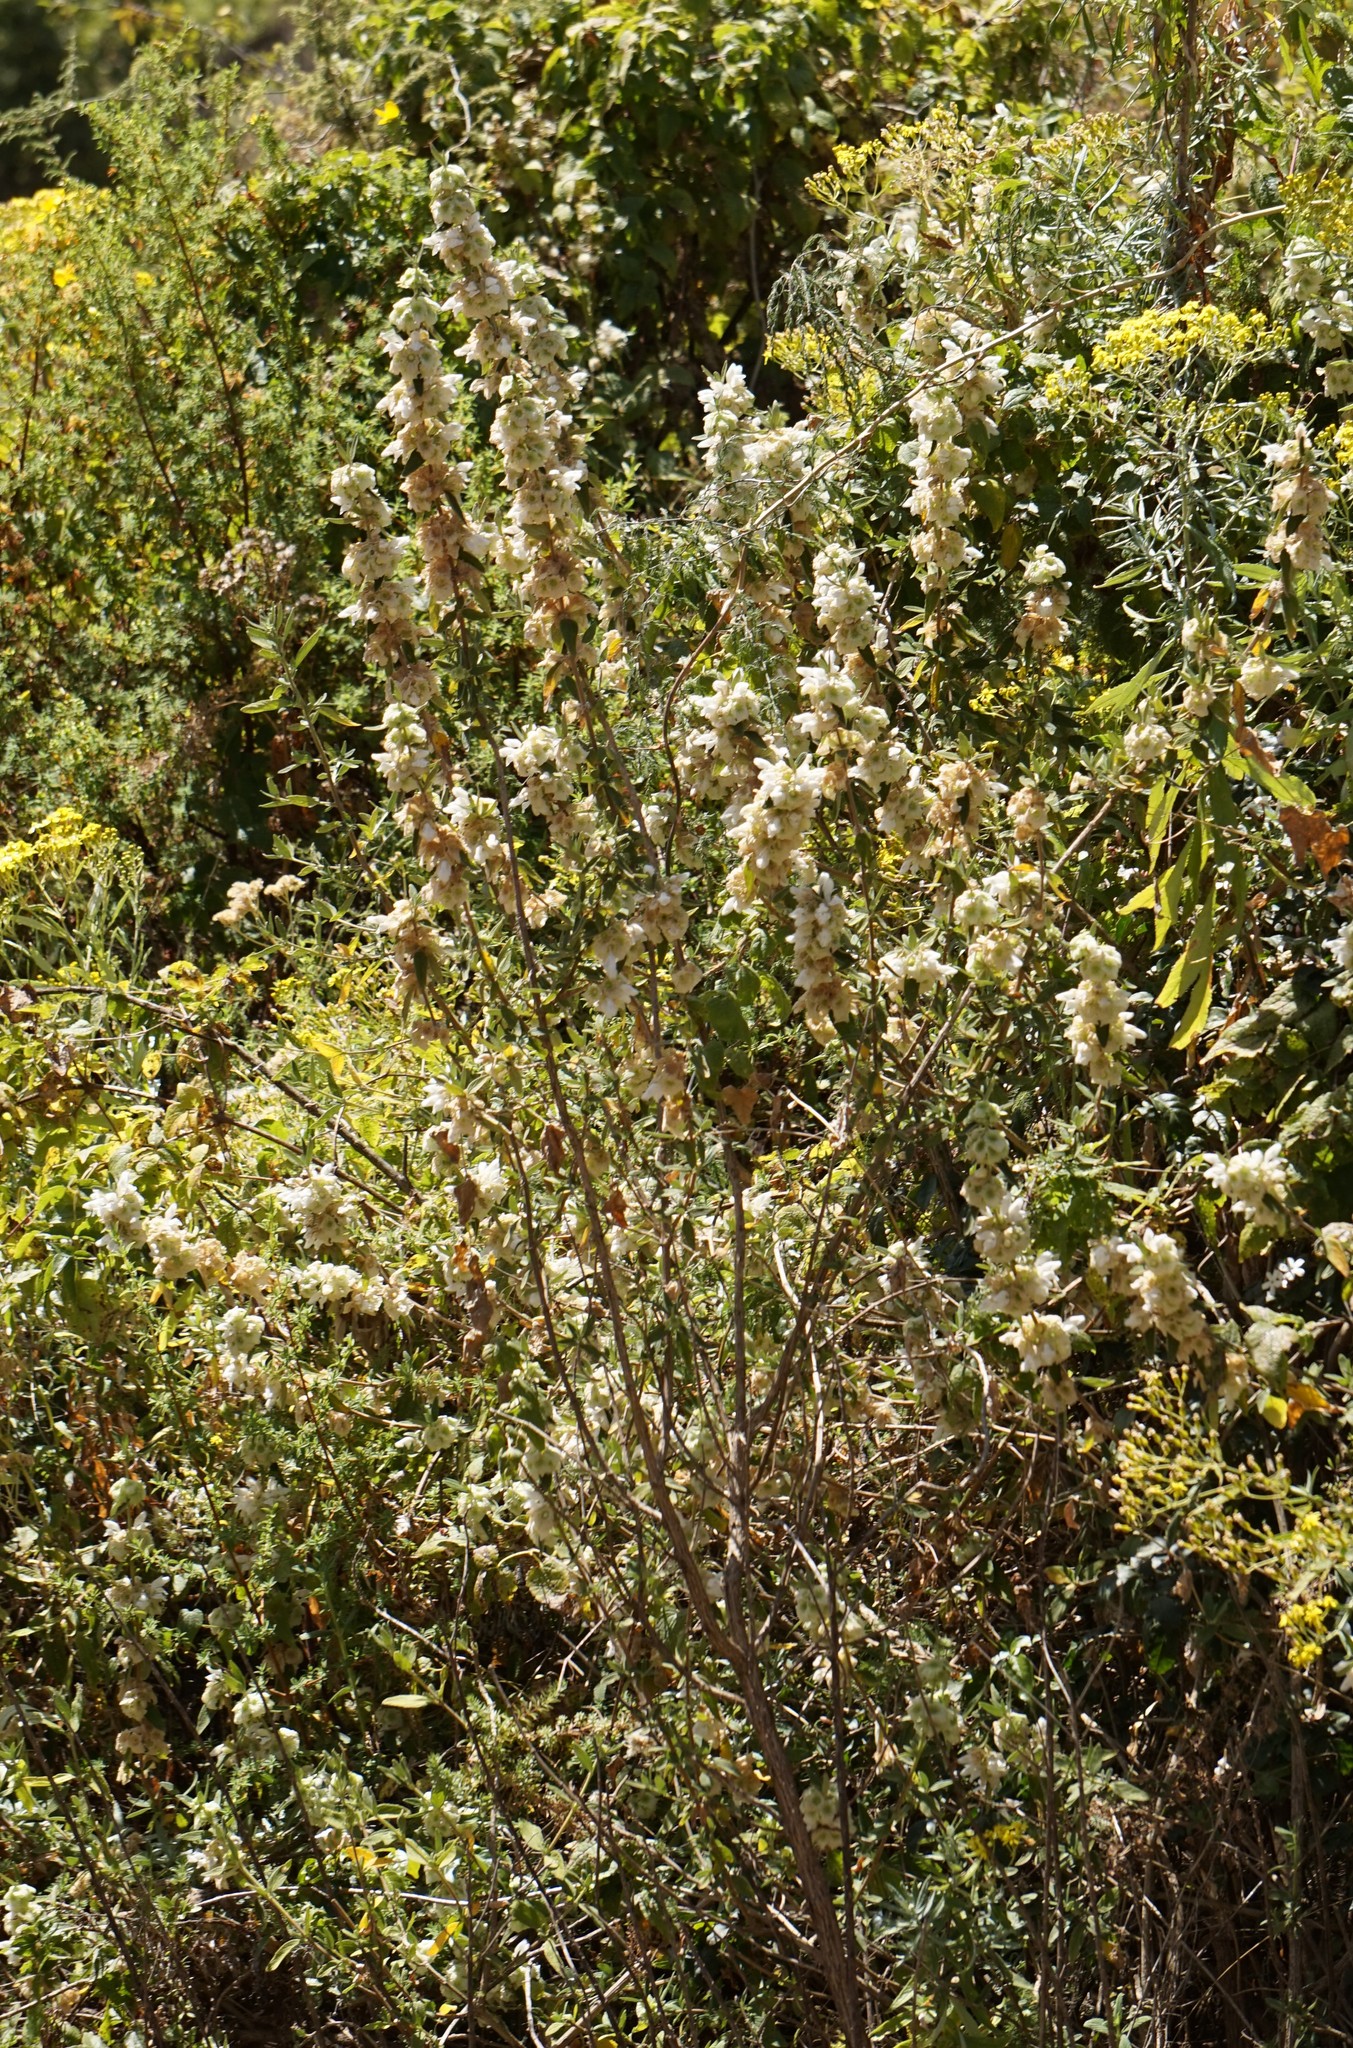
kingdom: Plantae
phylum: Tracheophyta
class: Magnoliopsida
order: Lamiales
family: Lamiaceae
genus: Otostegia
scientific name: Otostegia fruticosa
